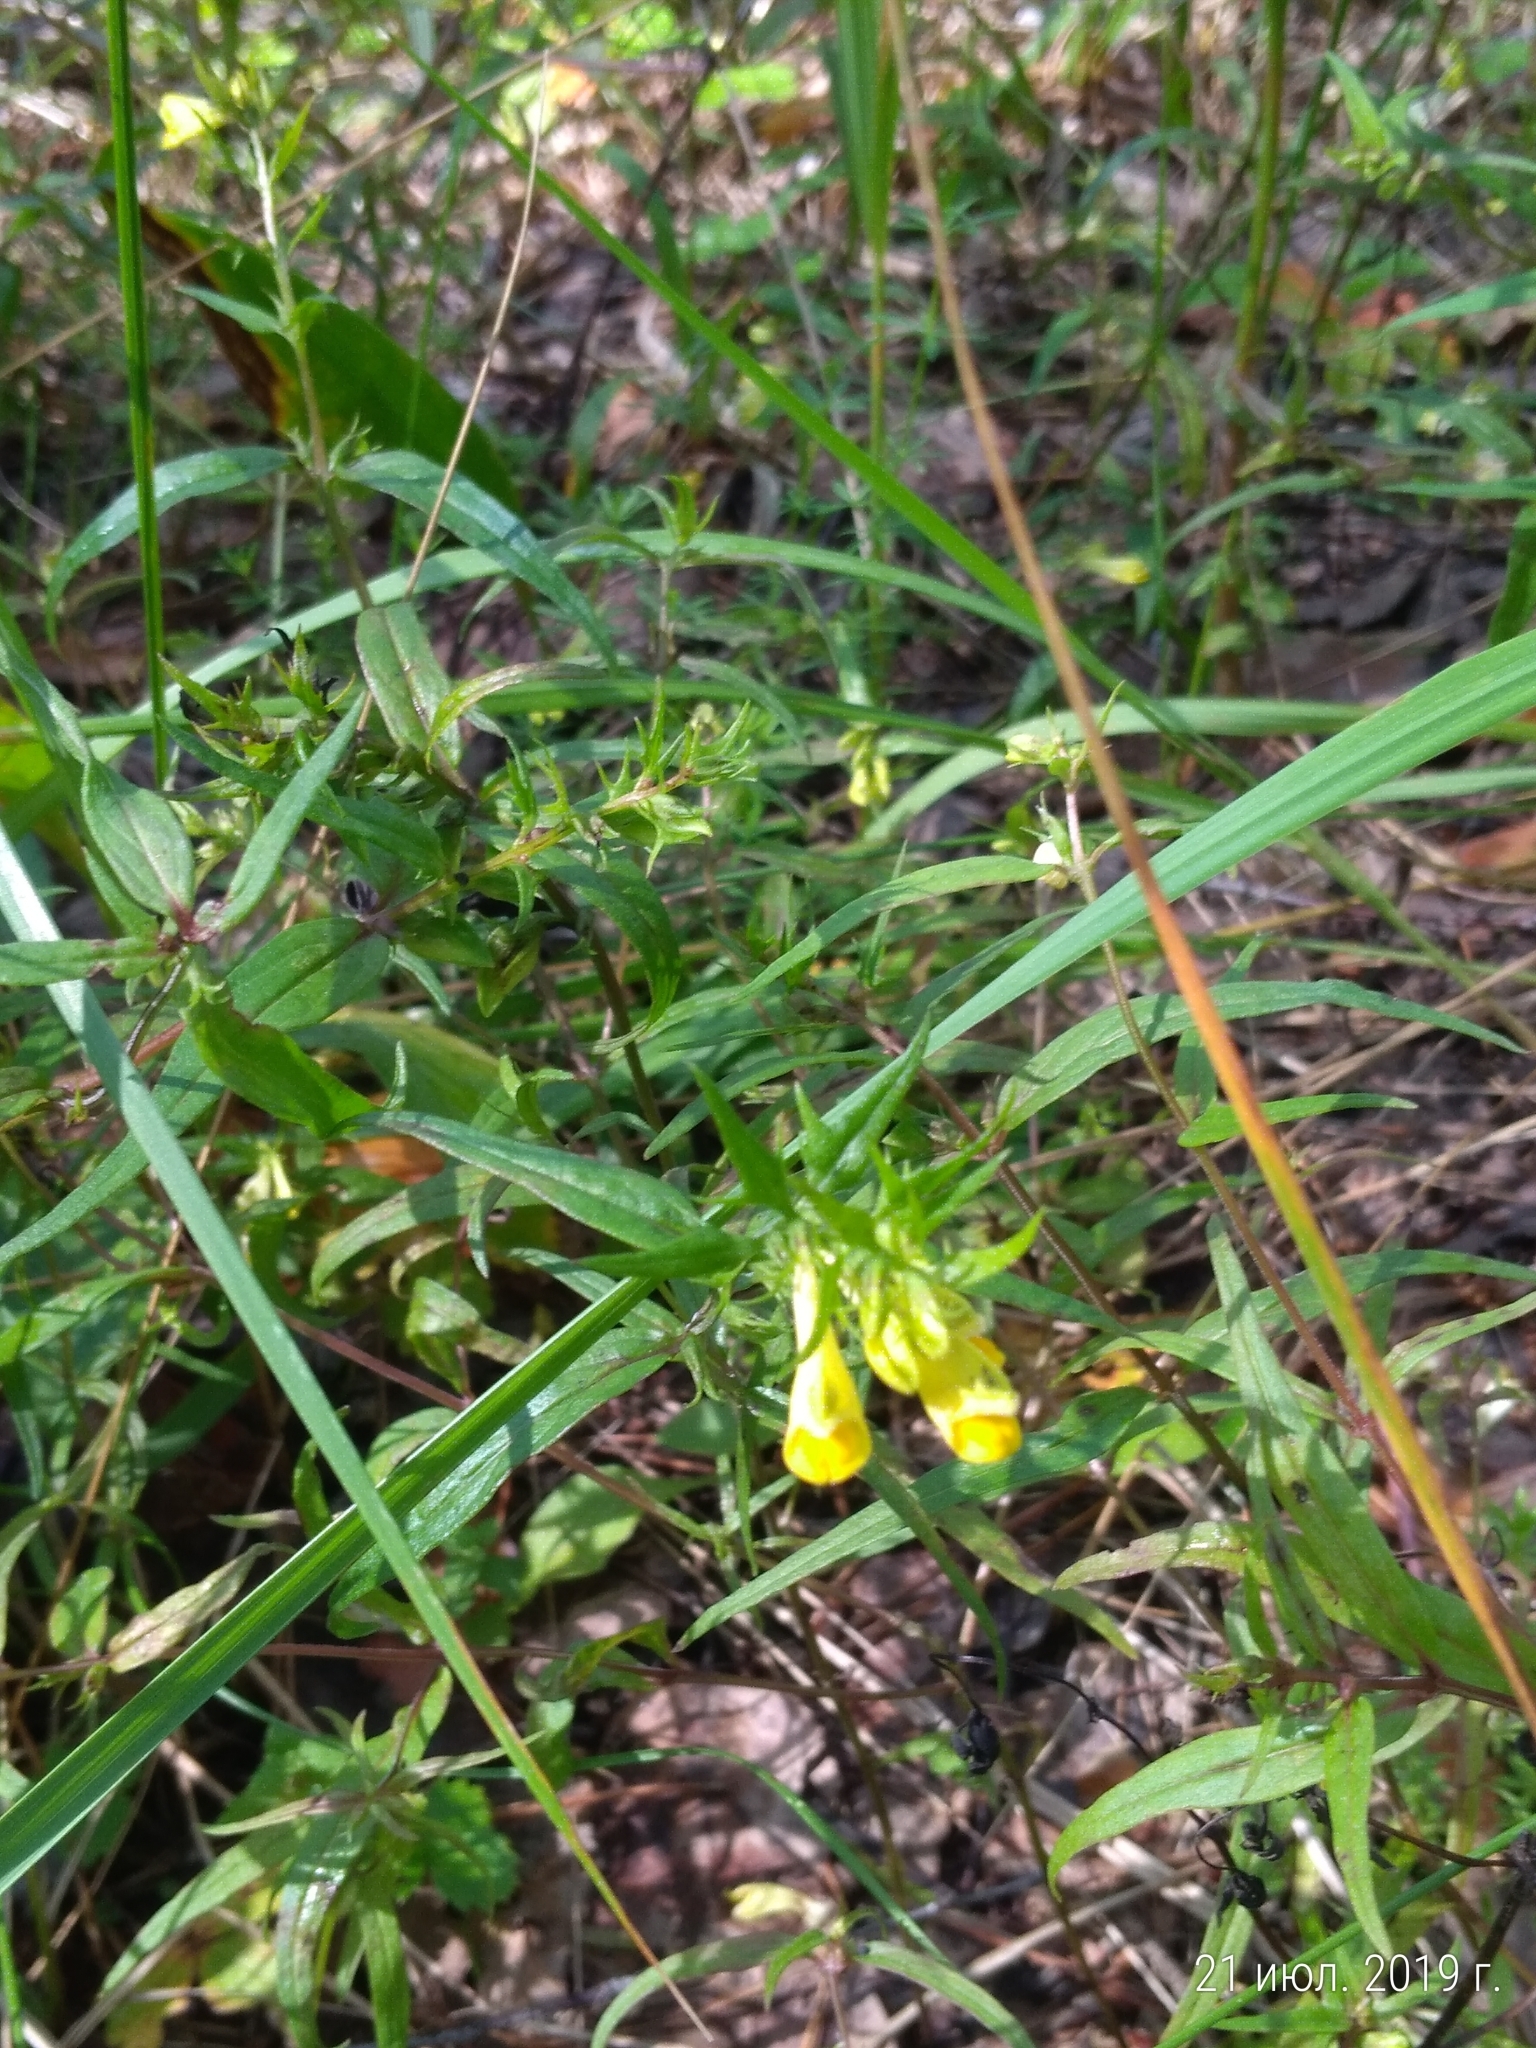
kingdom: Plantae
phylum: Tracheophyta
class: Magnoliopsida
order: Lamiales
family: Orobanchaceae
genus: Melampyrum
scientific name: Melampyrum pratense
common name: Common cow-wheat
